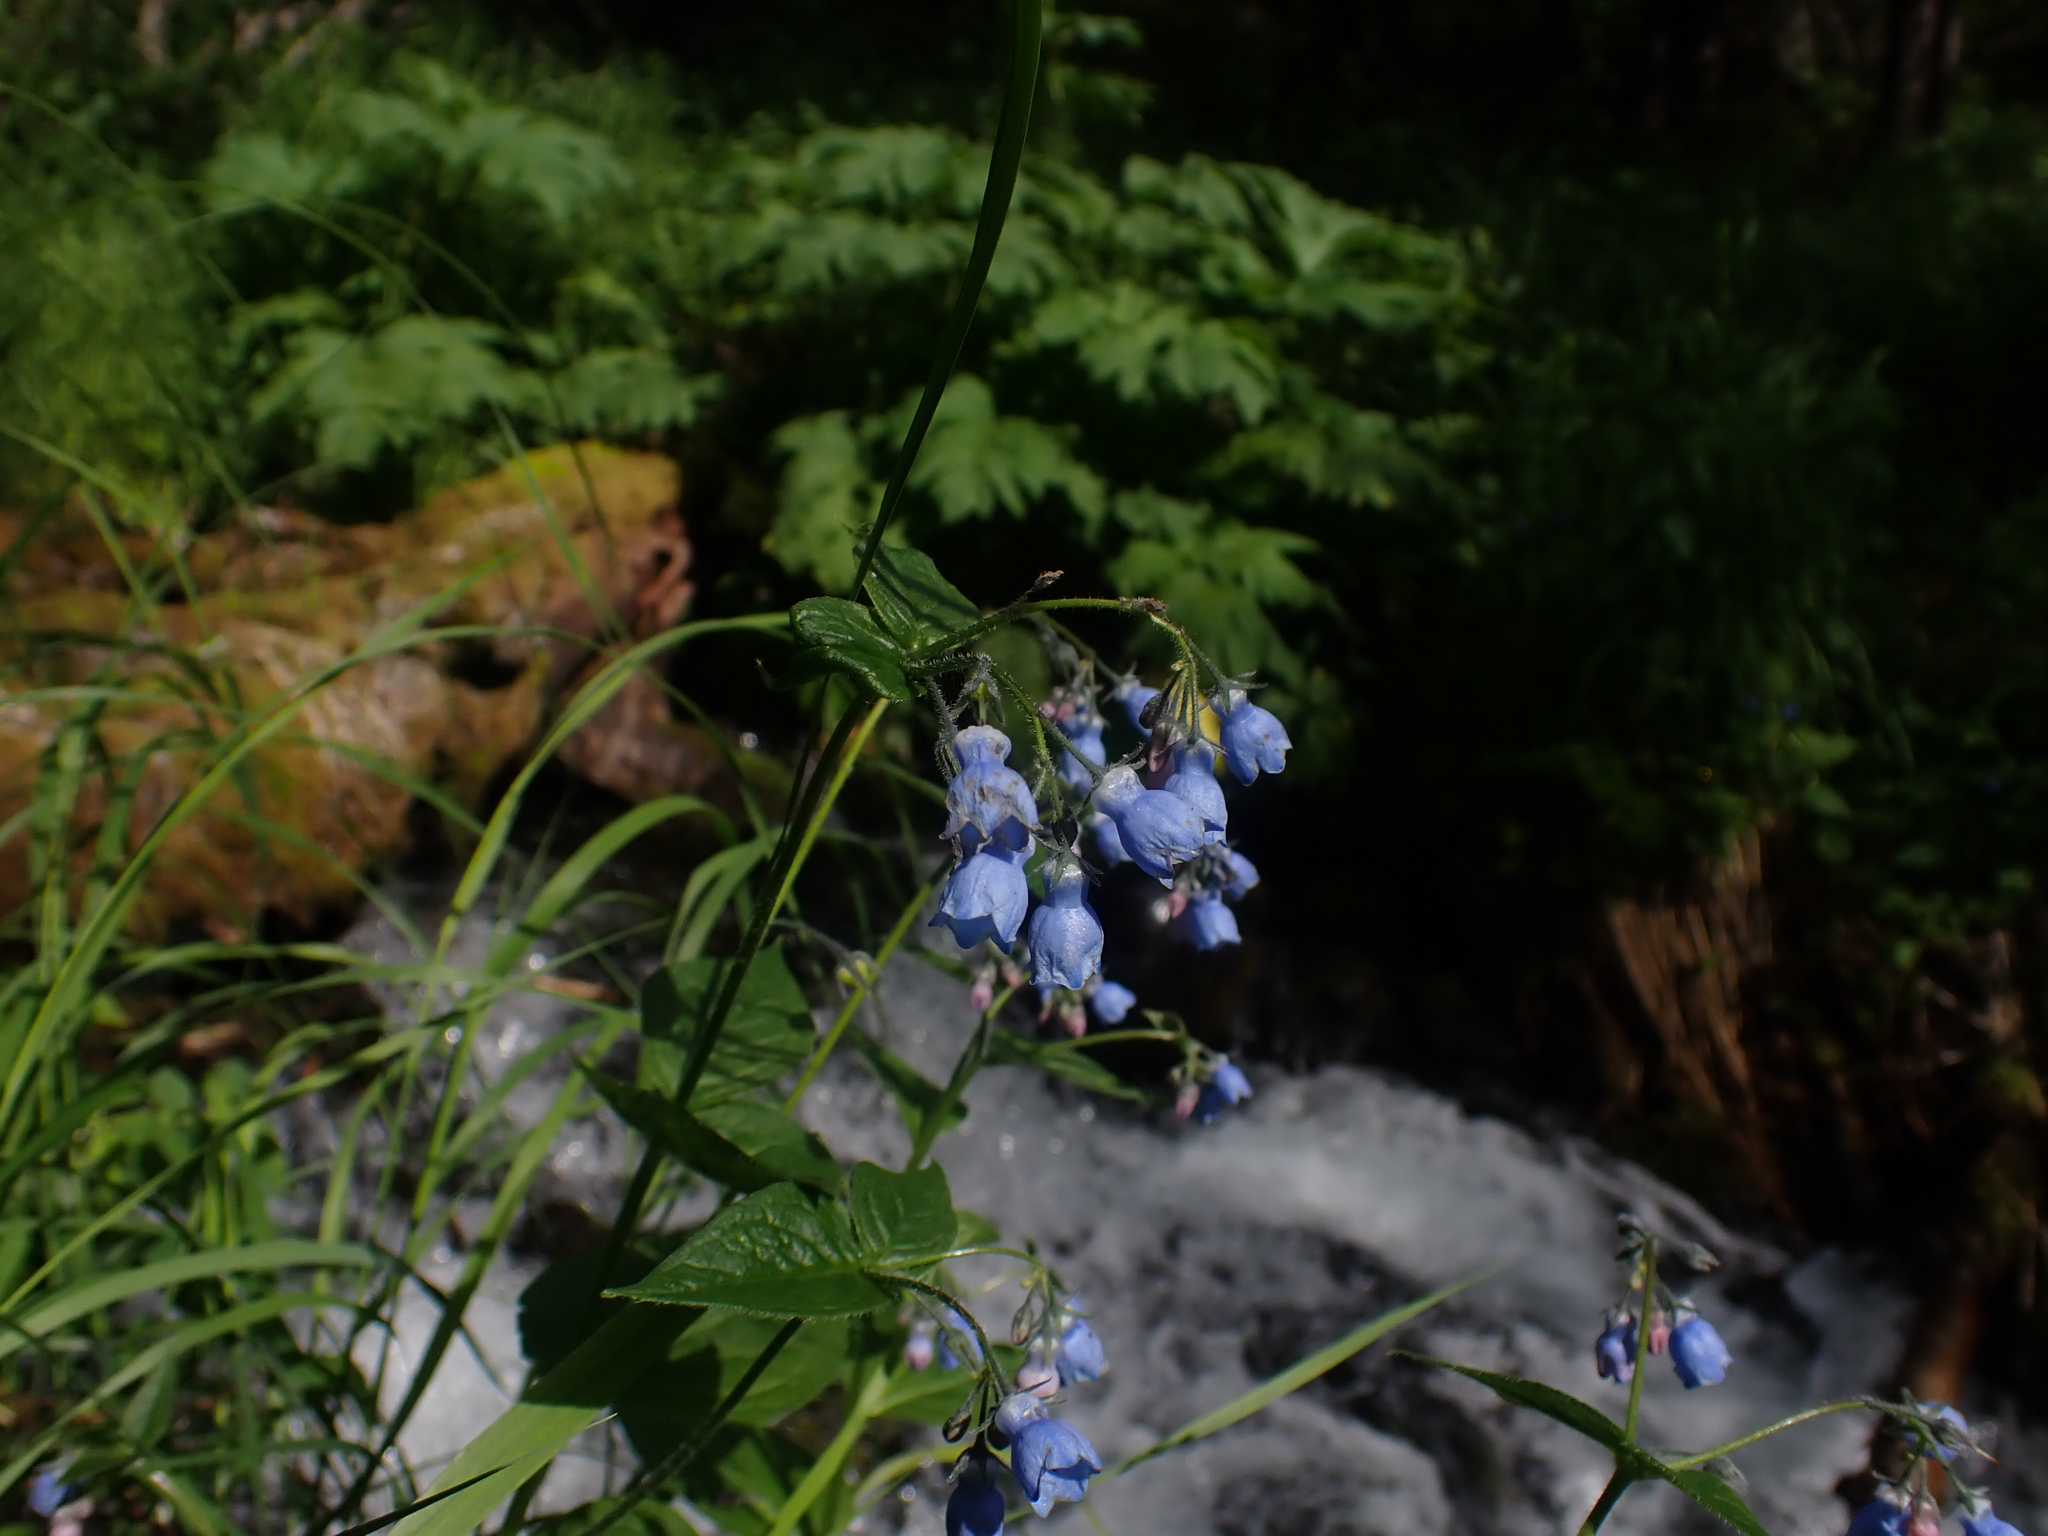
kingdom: Plantae
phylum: Tracheophyta
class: Magnoliopsida
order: Boraginales
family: Boraginaceae
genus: Mertensia
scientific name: Mertensia paniculata
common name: Panicled bluebells
